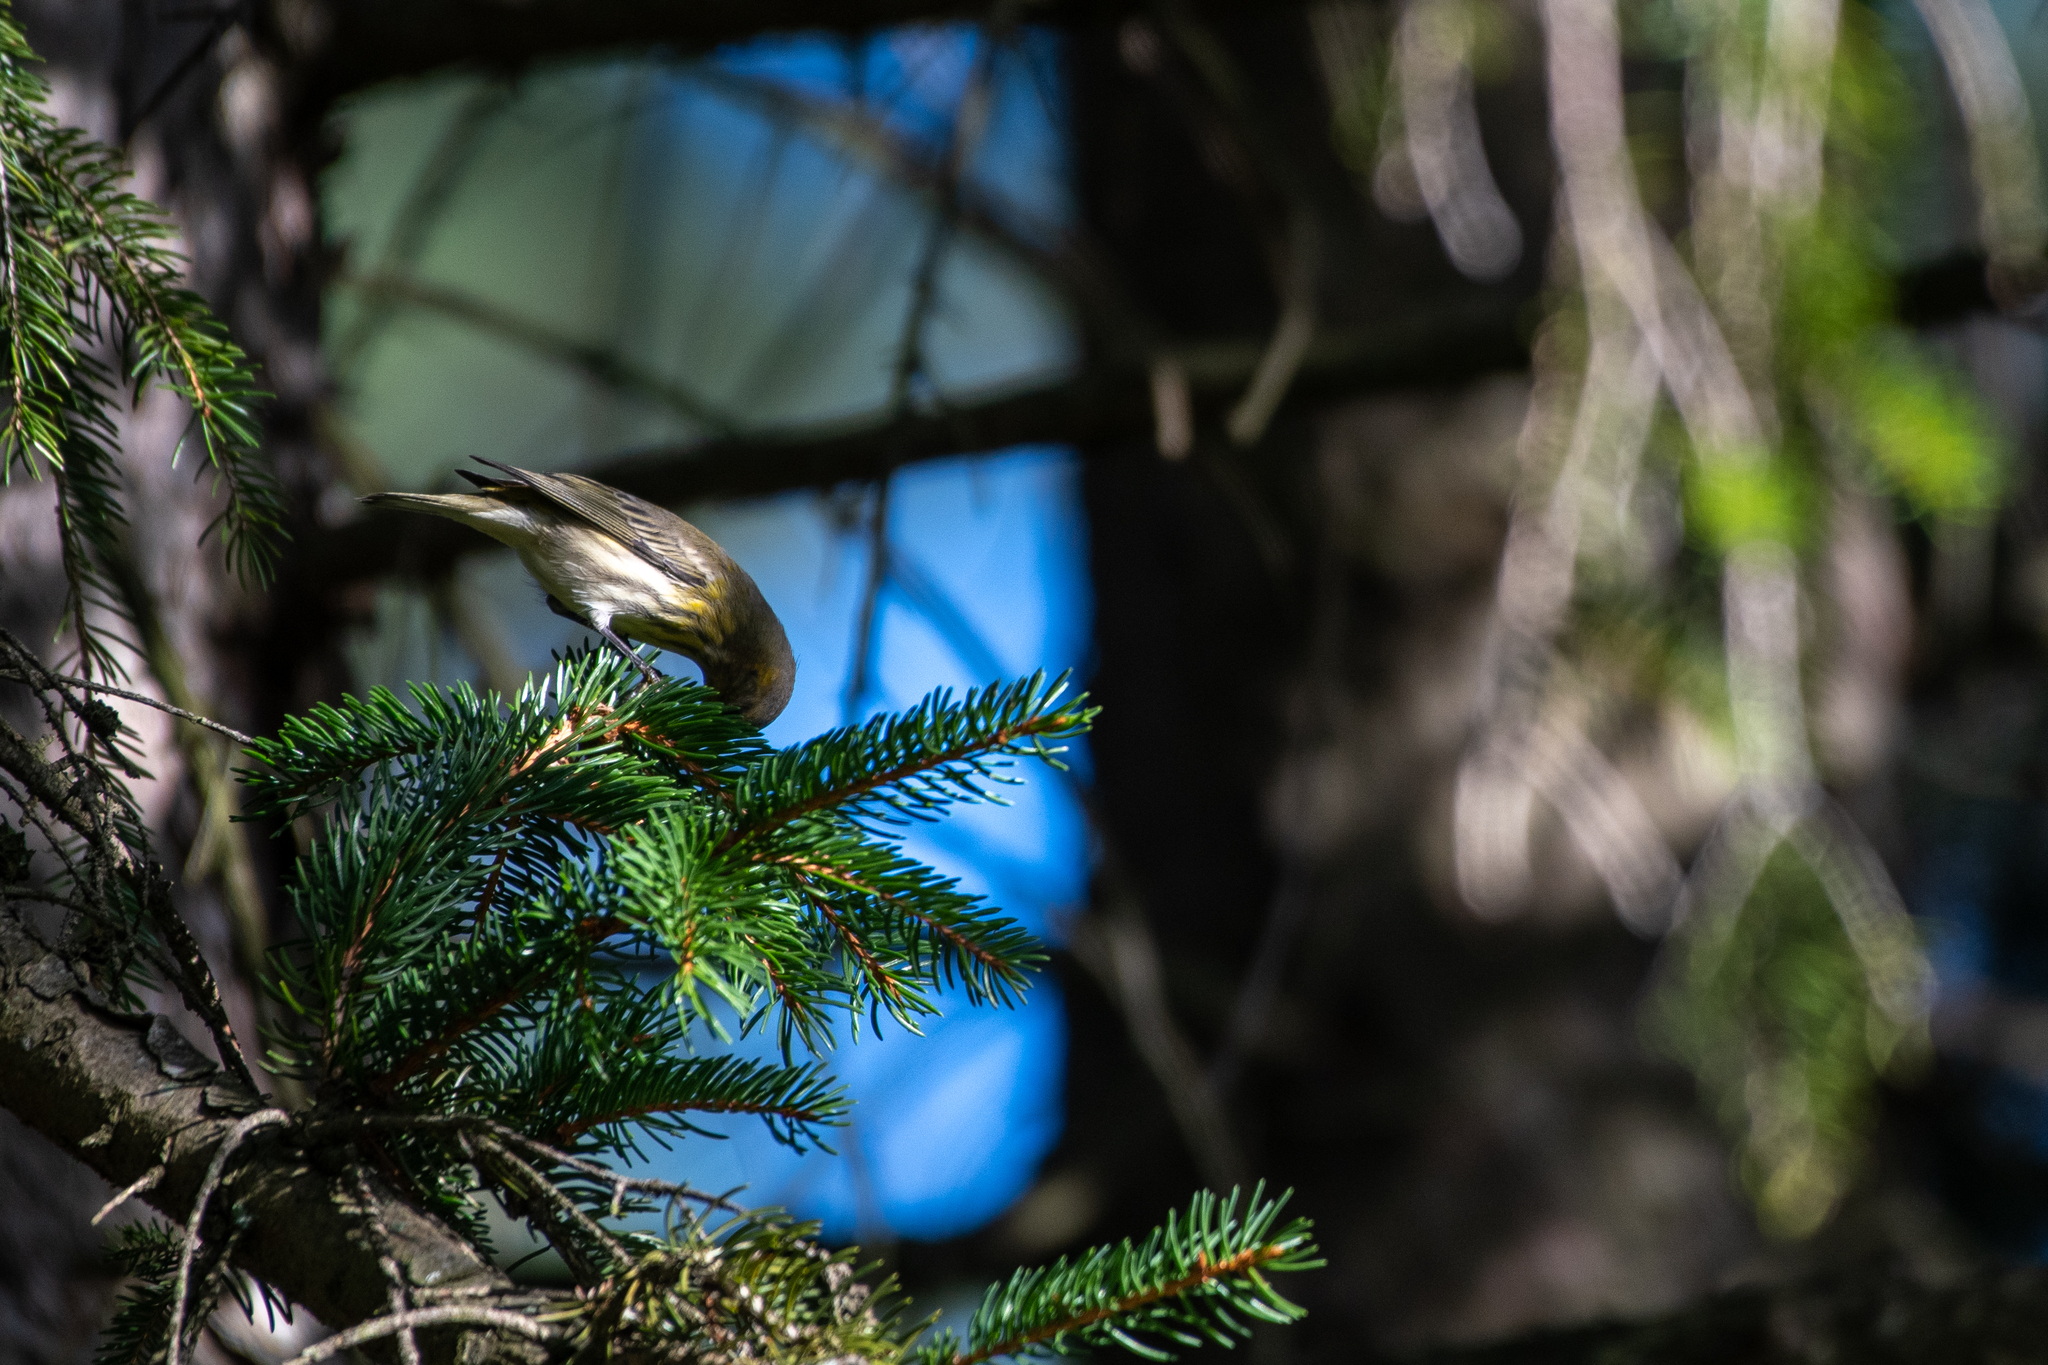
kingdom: Animalia
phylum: Chordata
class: Aves
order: Passeriformes
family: Parulidae
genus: Setophaga
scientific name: Setophaga tigrina
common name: Cape may warbler
